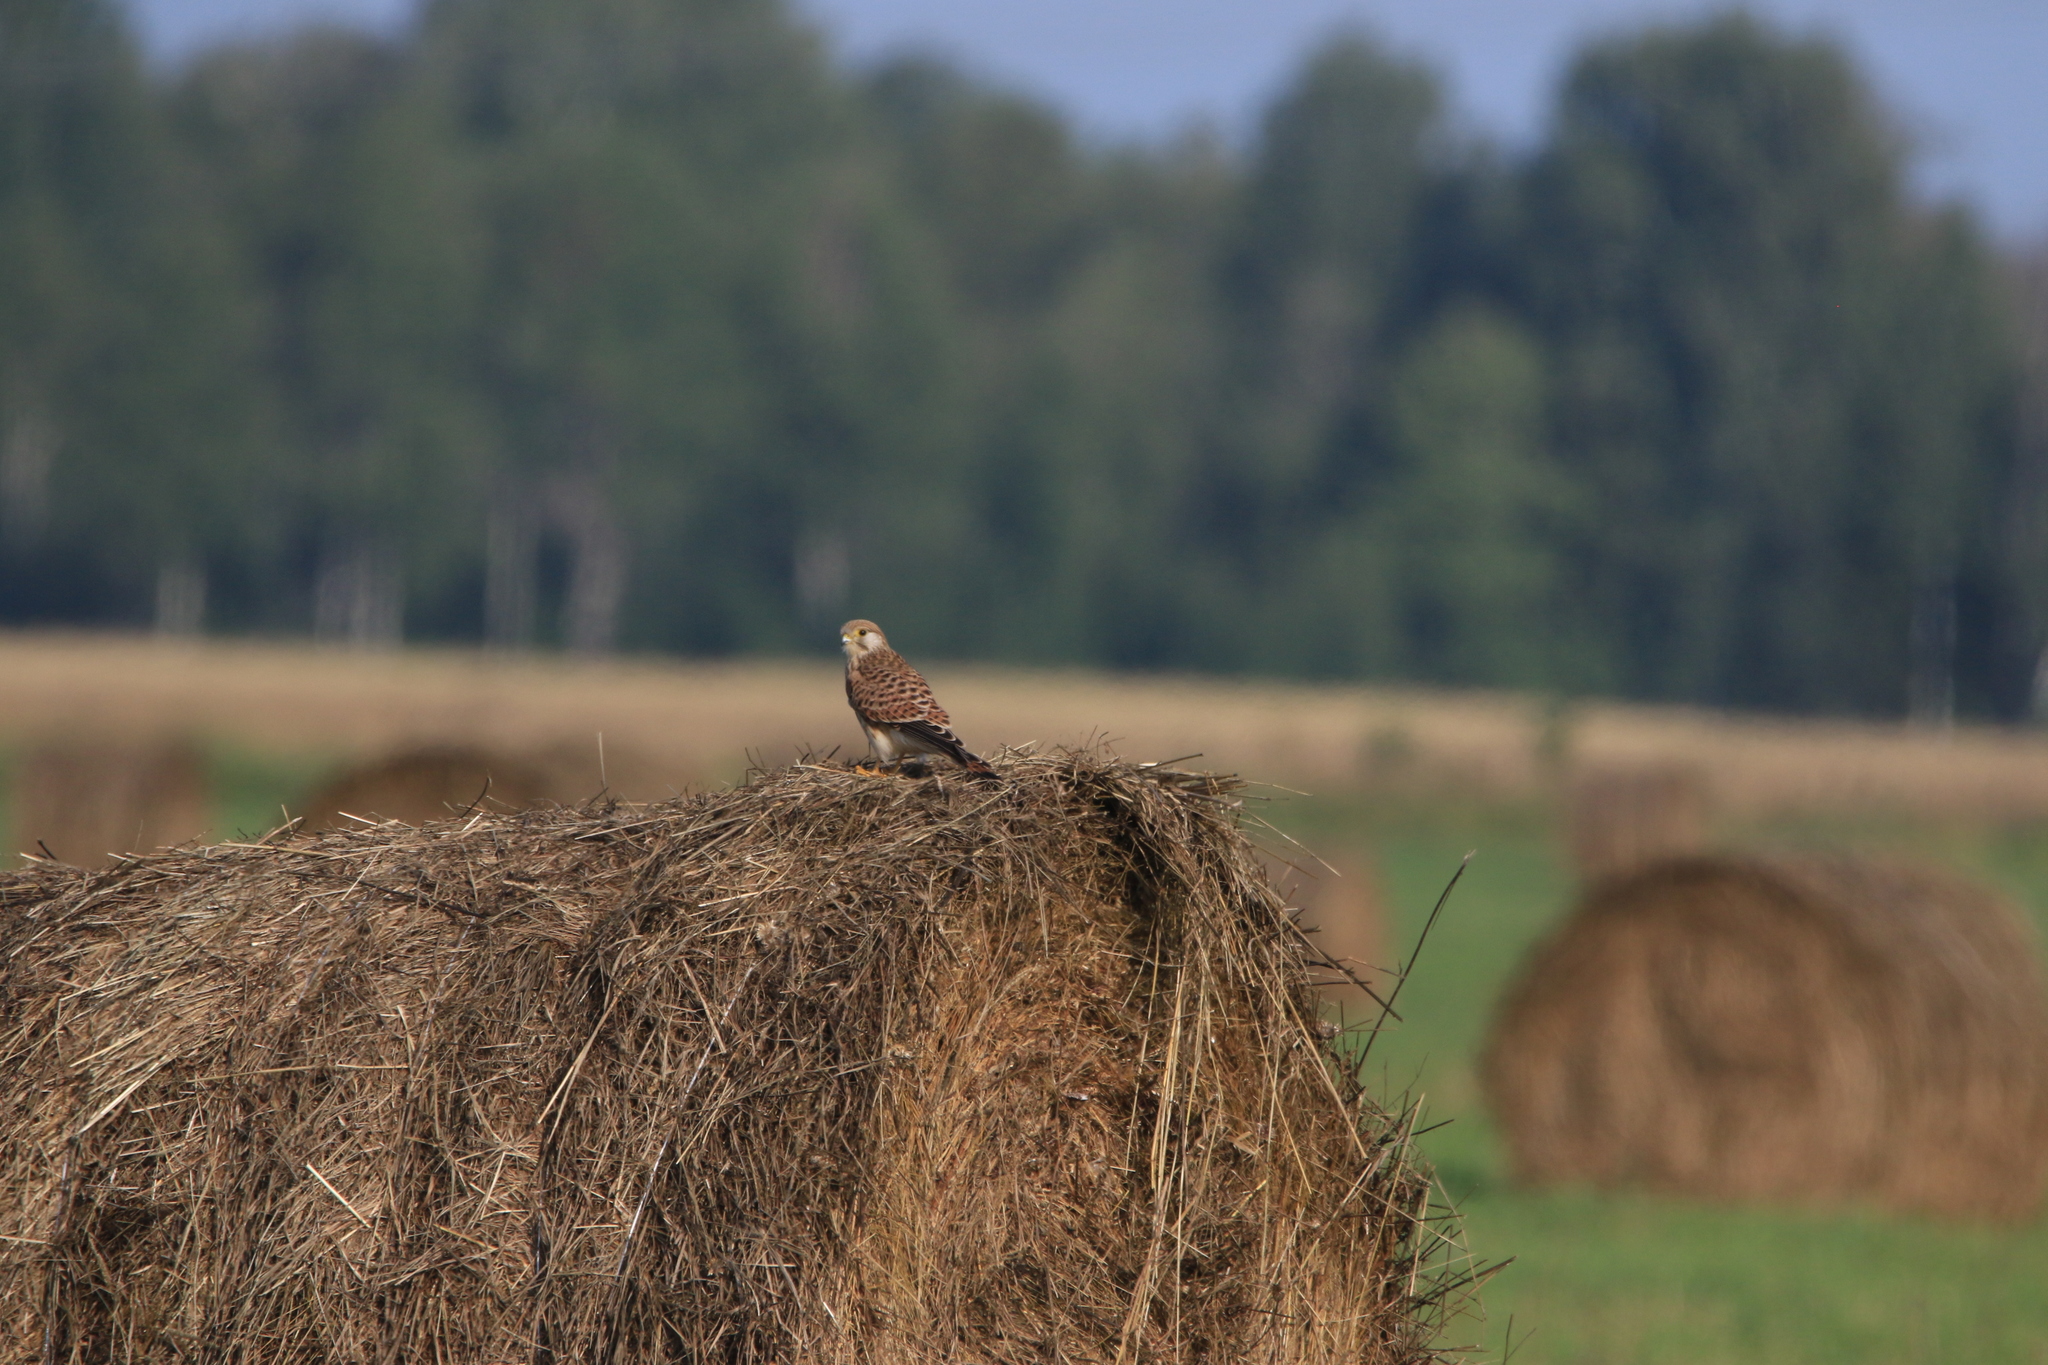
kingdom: Animalia
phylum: Chordata
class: Aves
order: Falconiformes
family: Falconidae
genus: Falco
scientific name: Falco tinnunculus
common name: Common kestrel
